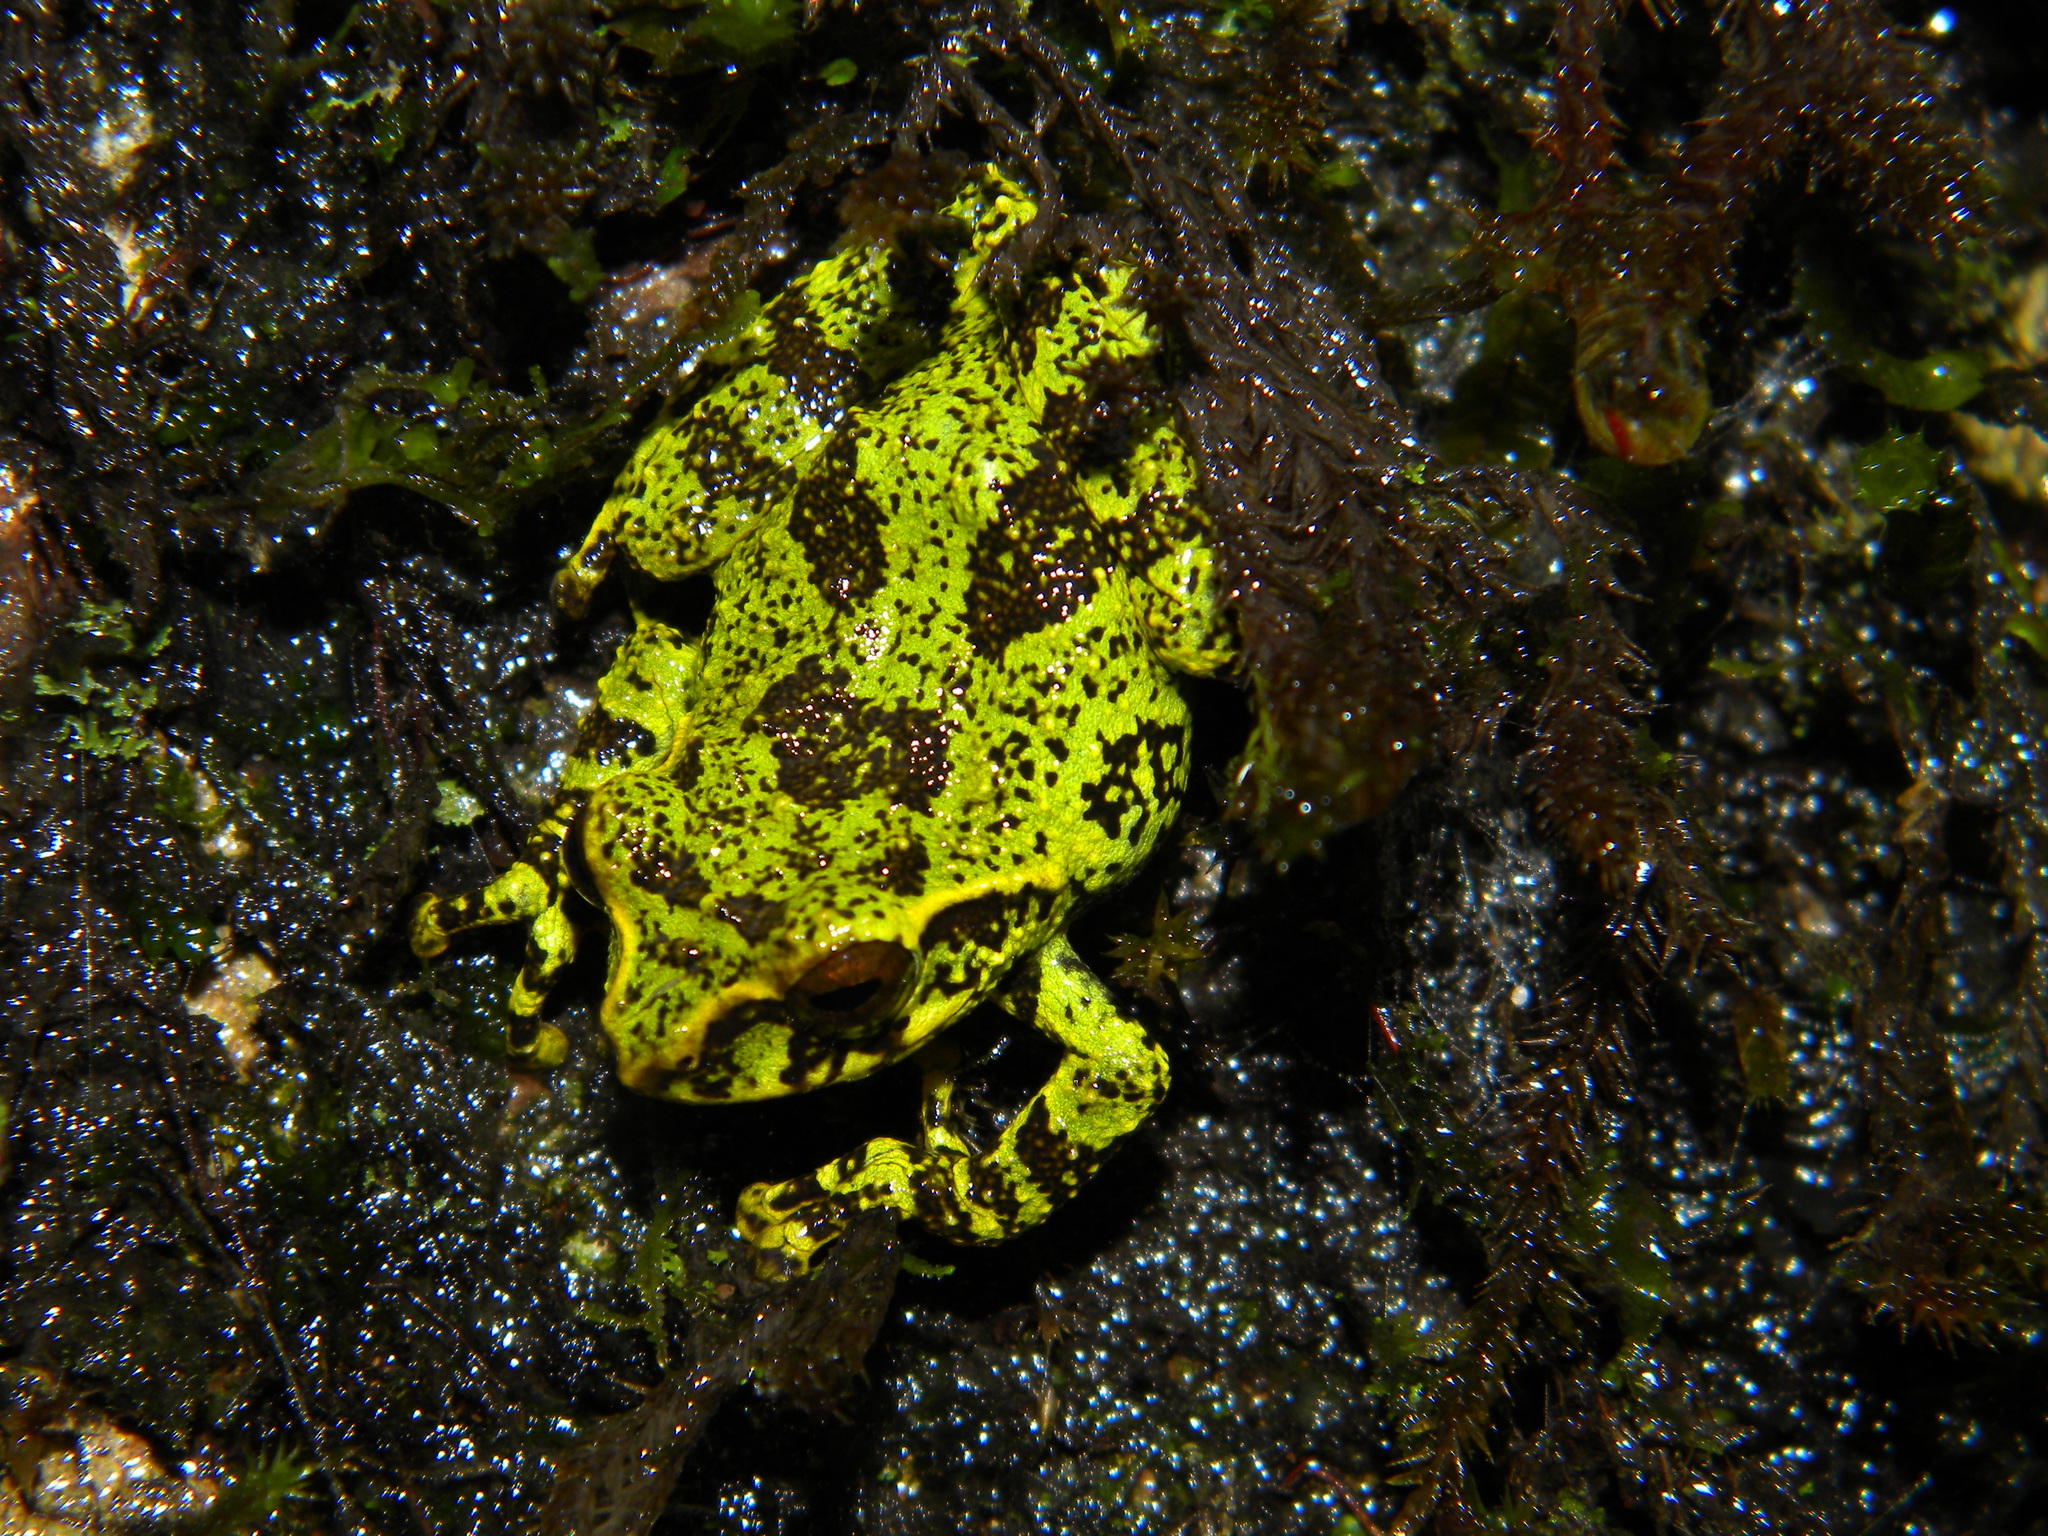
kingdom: Animalia
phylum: Chordata
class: Amphibia
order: Anura
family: Rhacophoridae
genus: Raorchestes
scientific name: Raorchestes crustai
